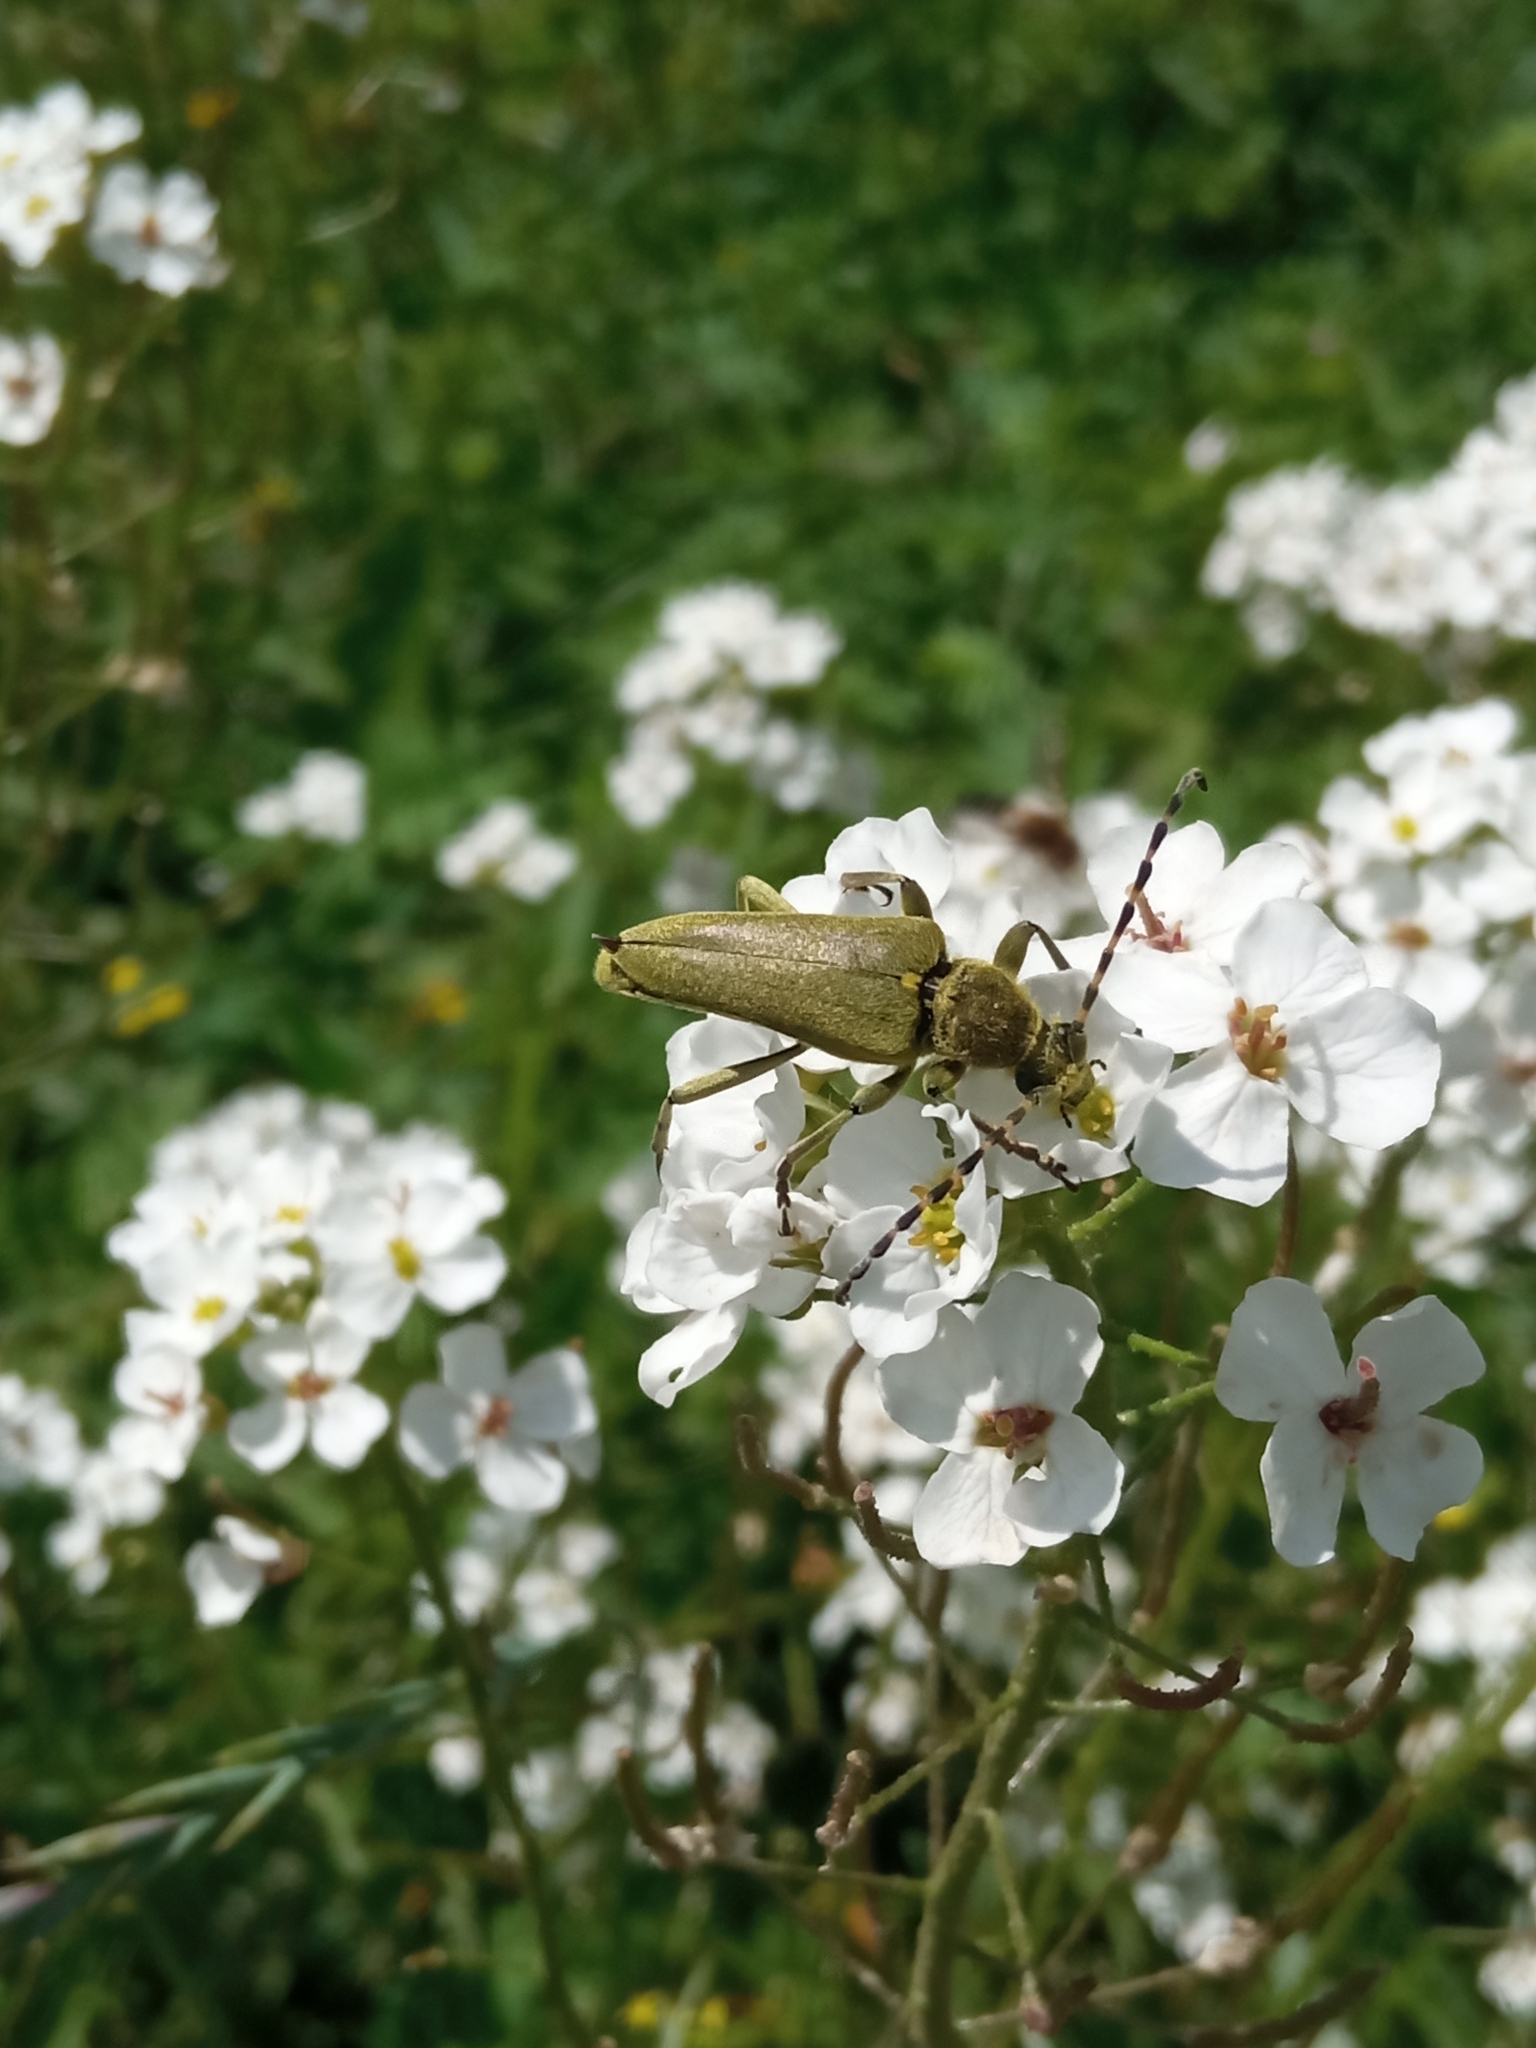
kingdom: Animalia
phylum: Arthropoda
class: Insecta
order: Coleoptera
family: Cerambycidae
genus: Lepturobosca
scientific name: Lepturobosca virens
